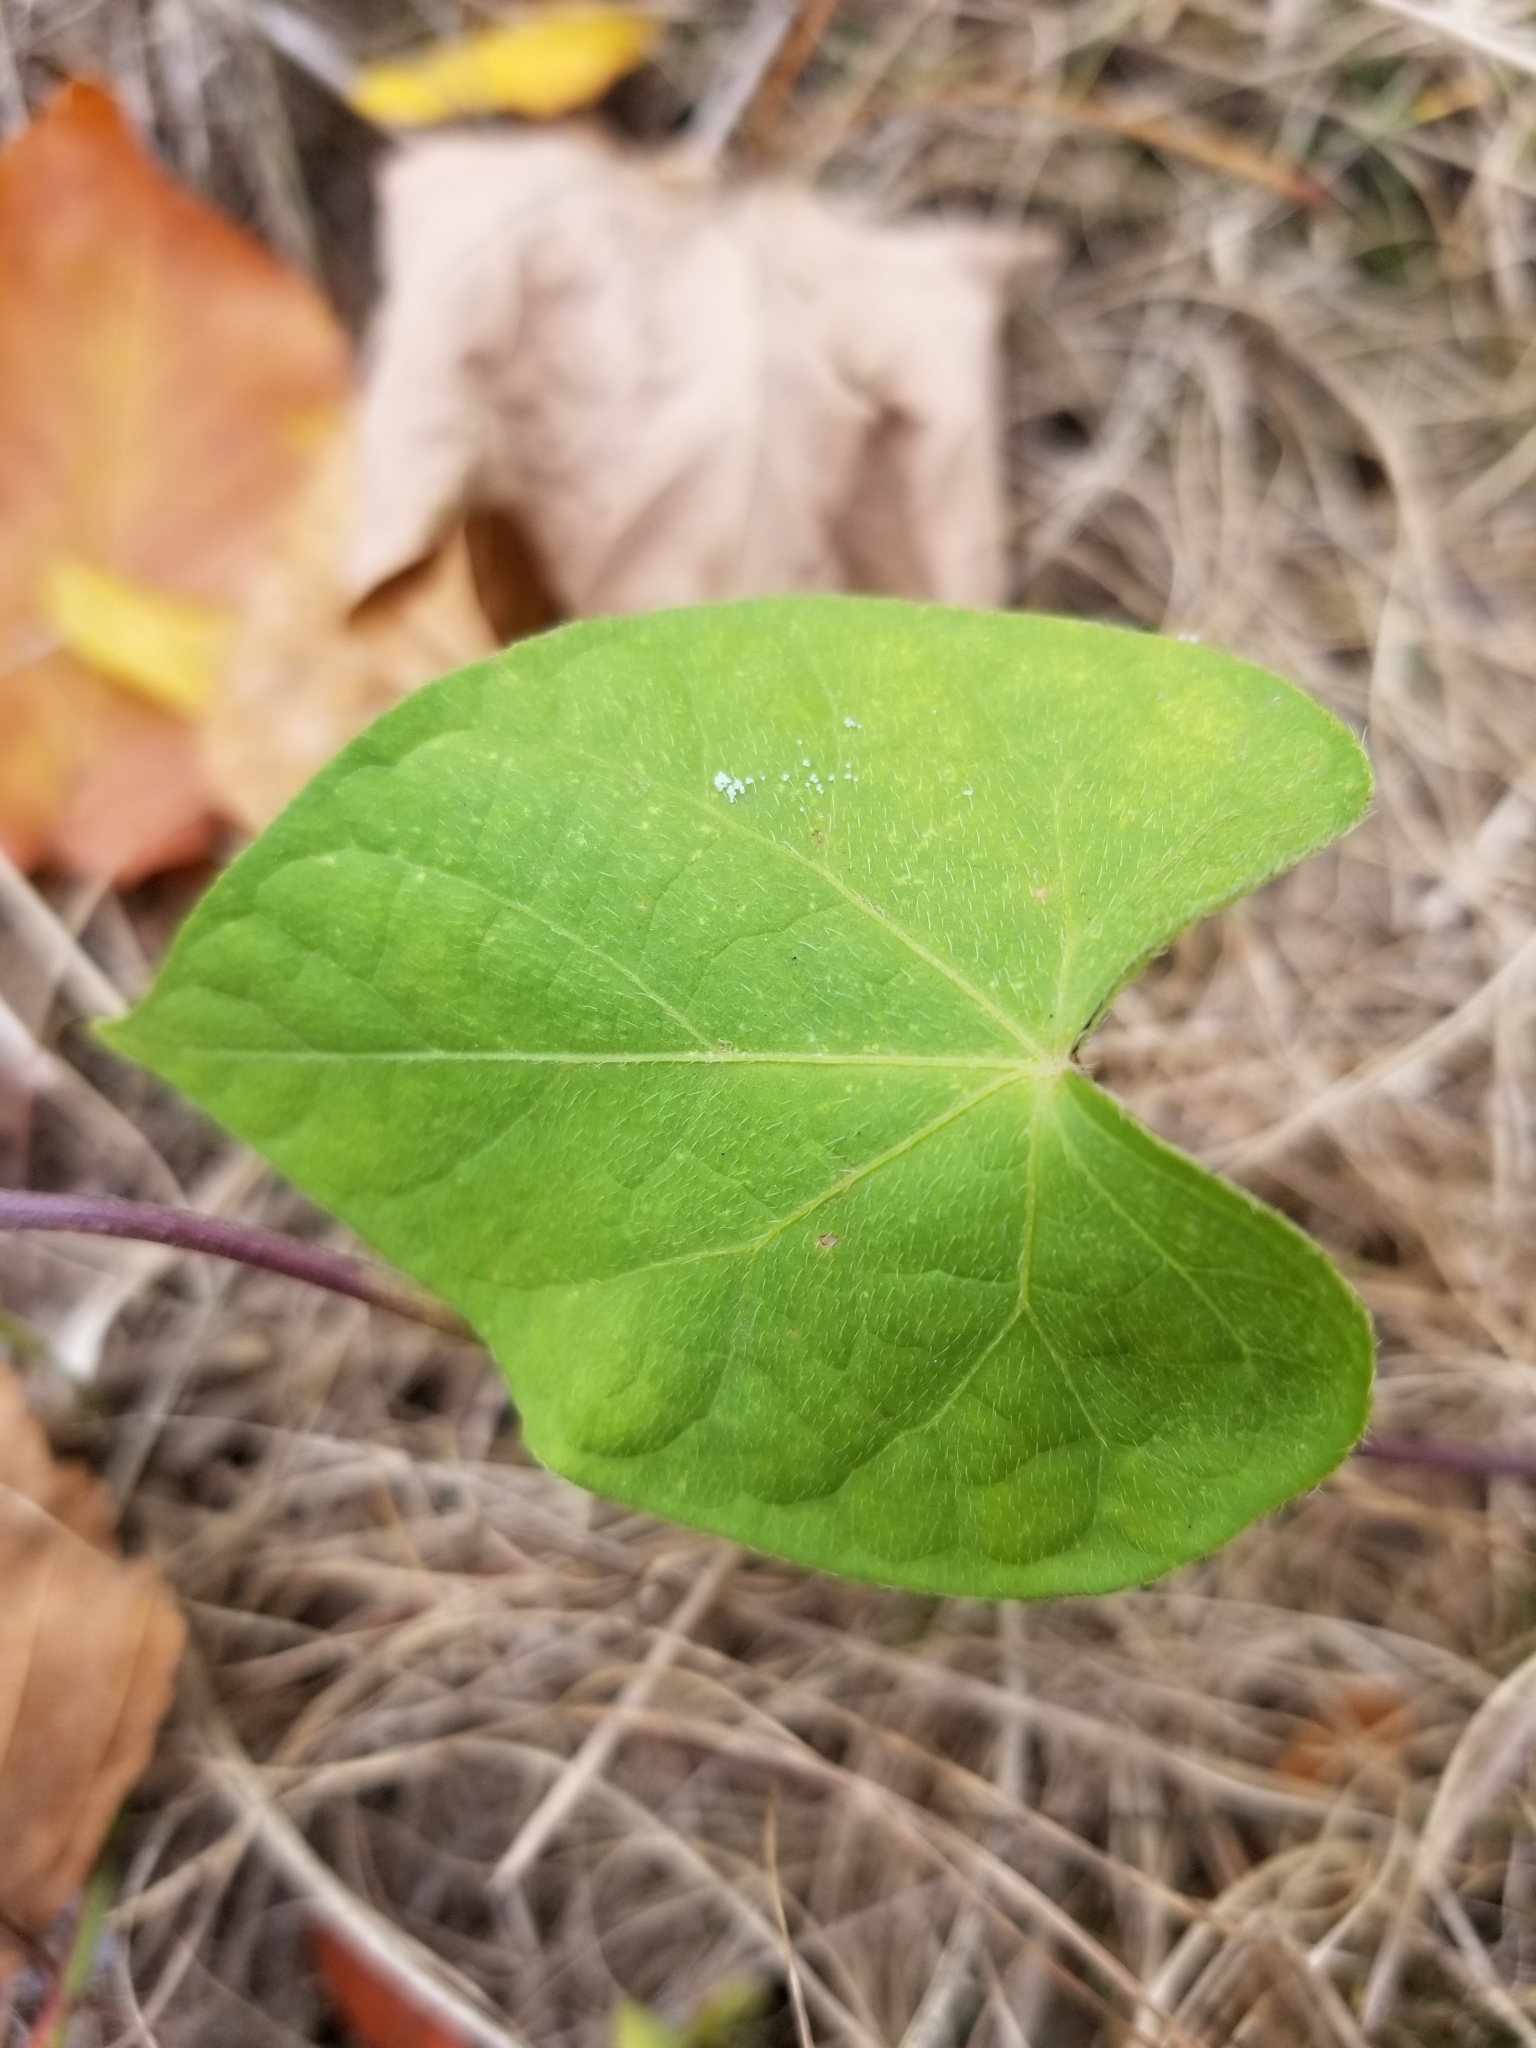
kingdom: Plantae
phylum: Tracheophyta
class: Magnoliopsida
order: Solanales
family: Convolvulaceae
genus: Ipomoea
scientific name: Ipomoea purpurea
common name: Common morning-glory
